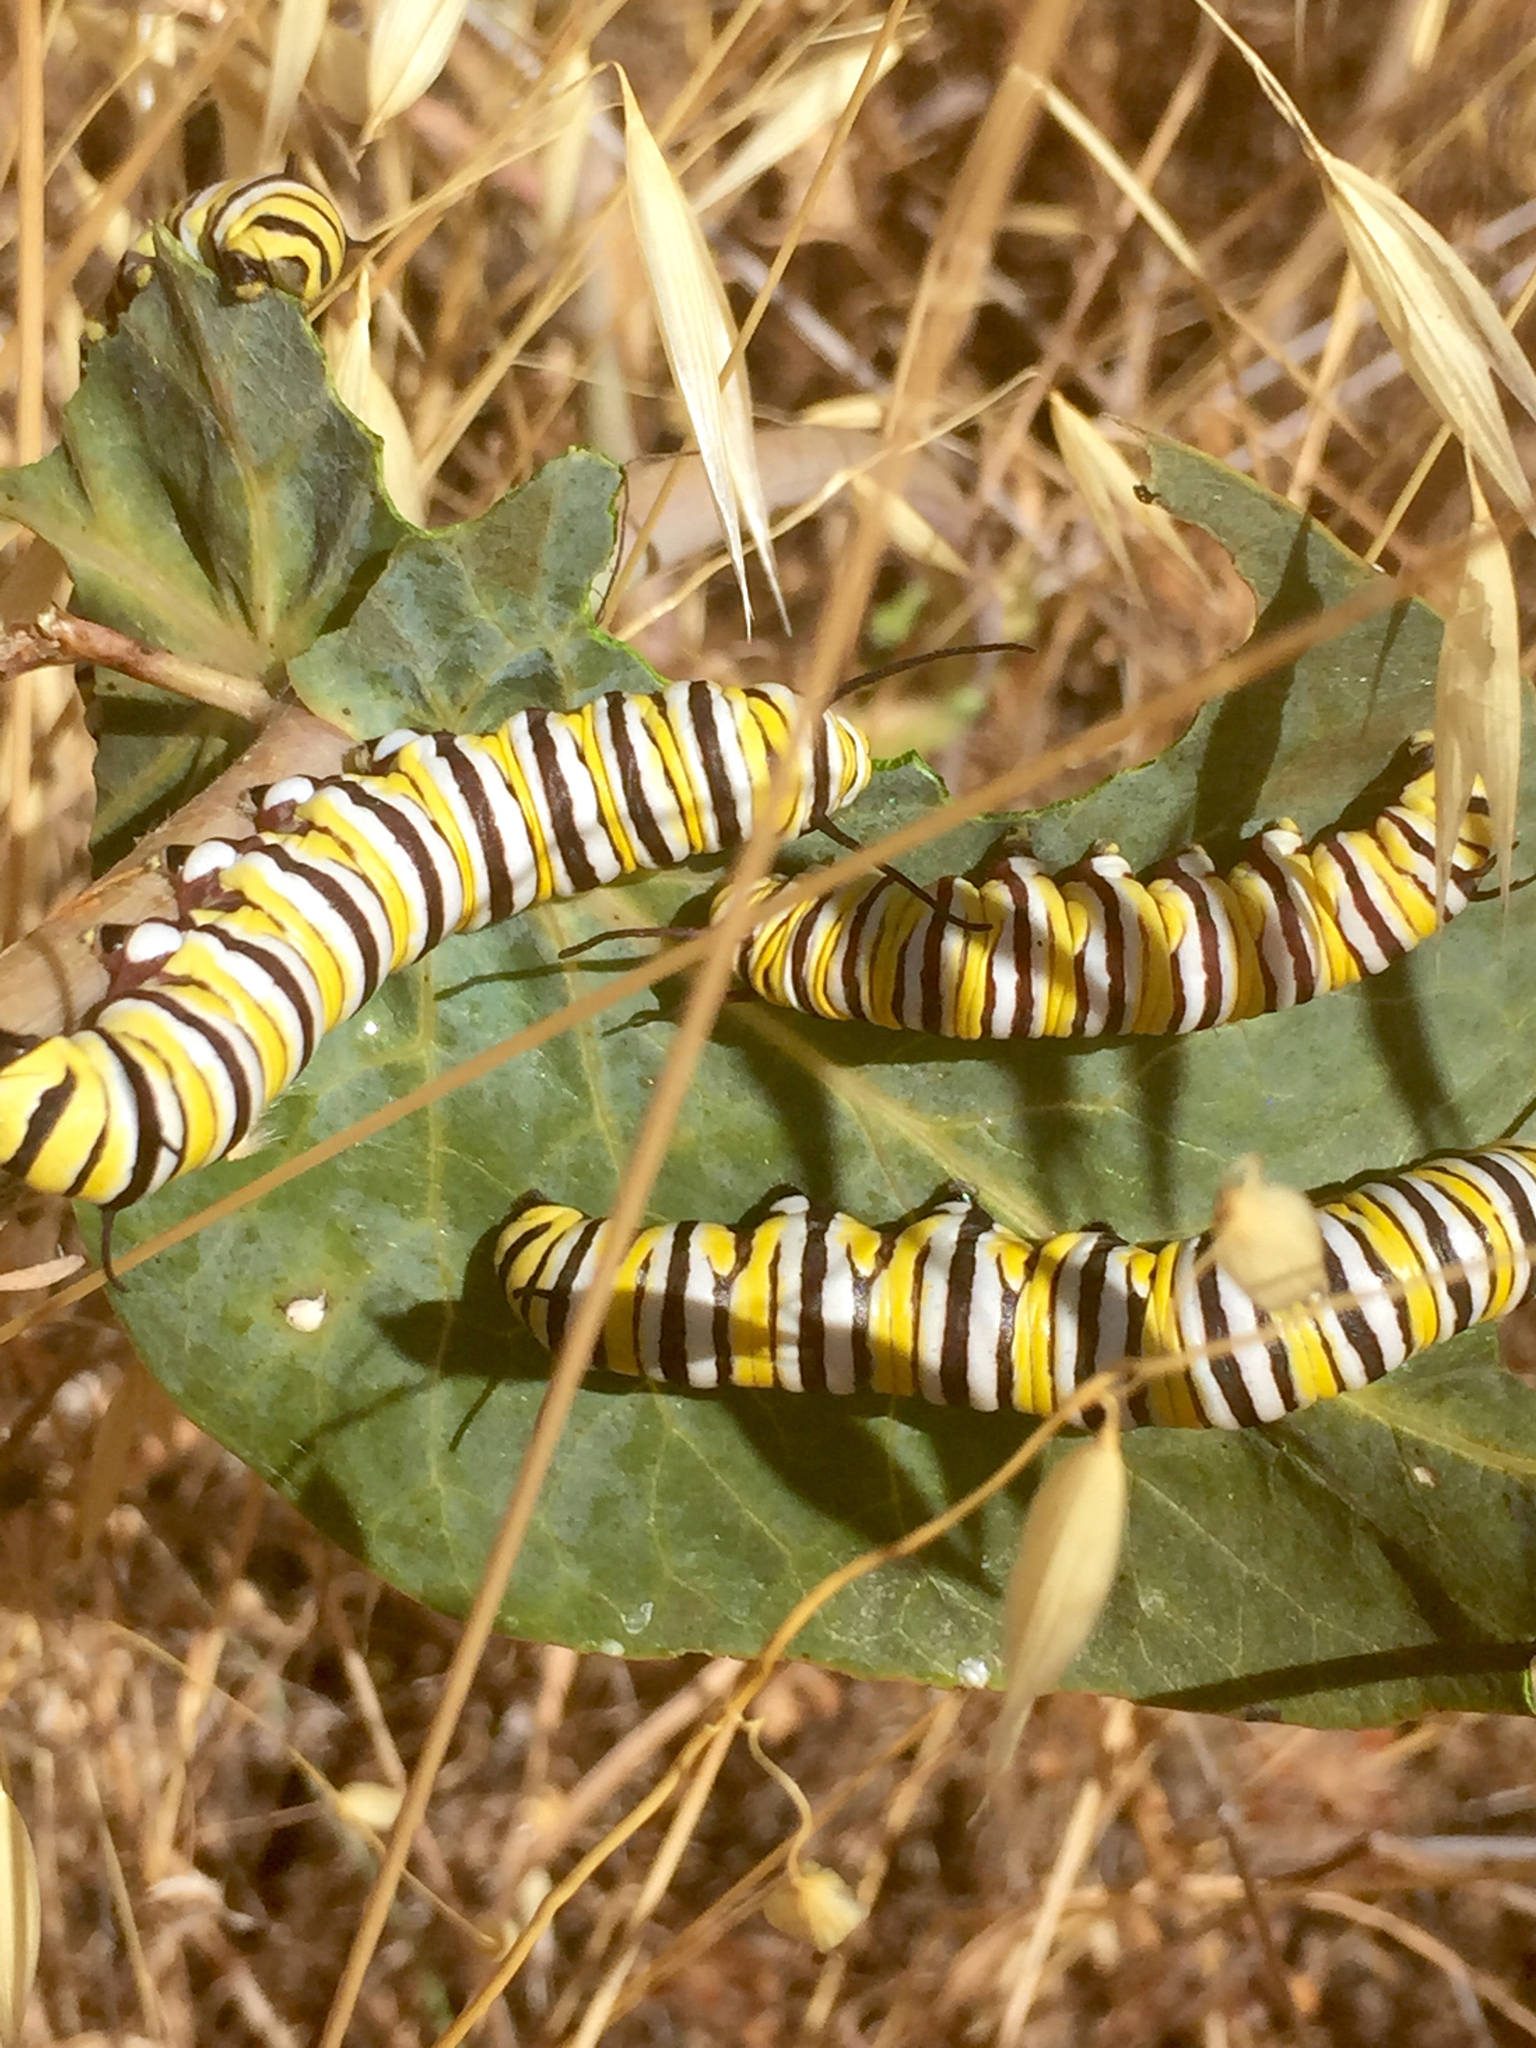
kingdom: Animalia
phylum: Arthropoda
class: Insecta
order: Lepidoptera
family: Nymphalidae
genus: Danaus
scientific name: Danaus plexippus
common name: Monarch
